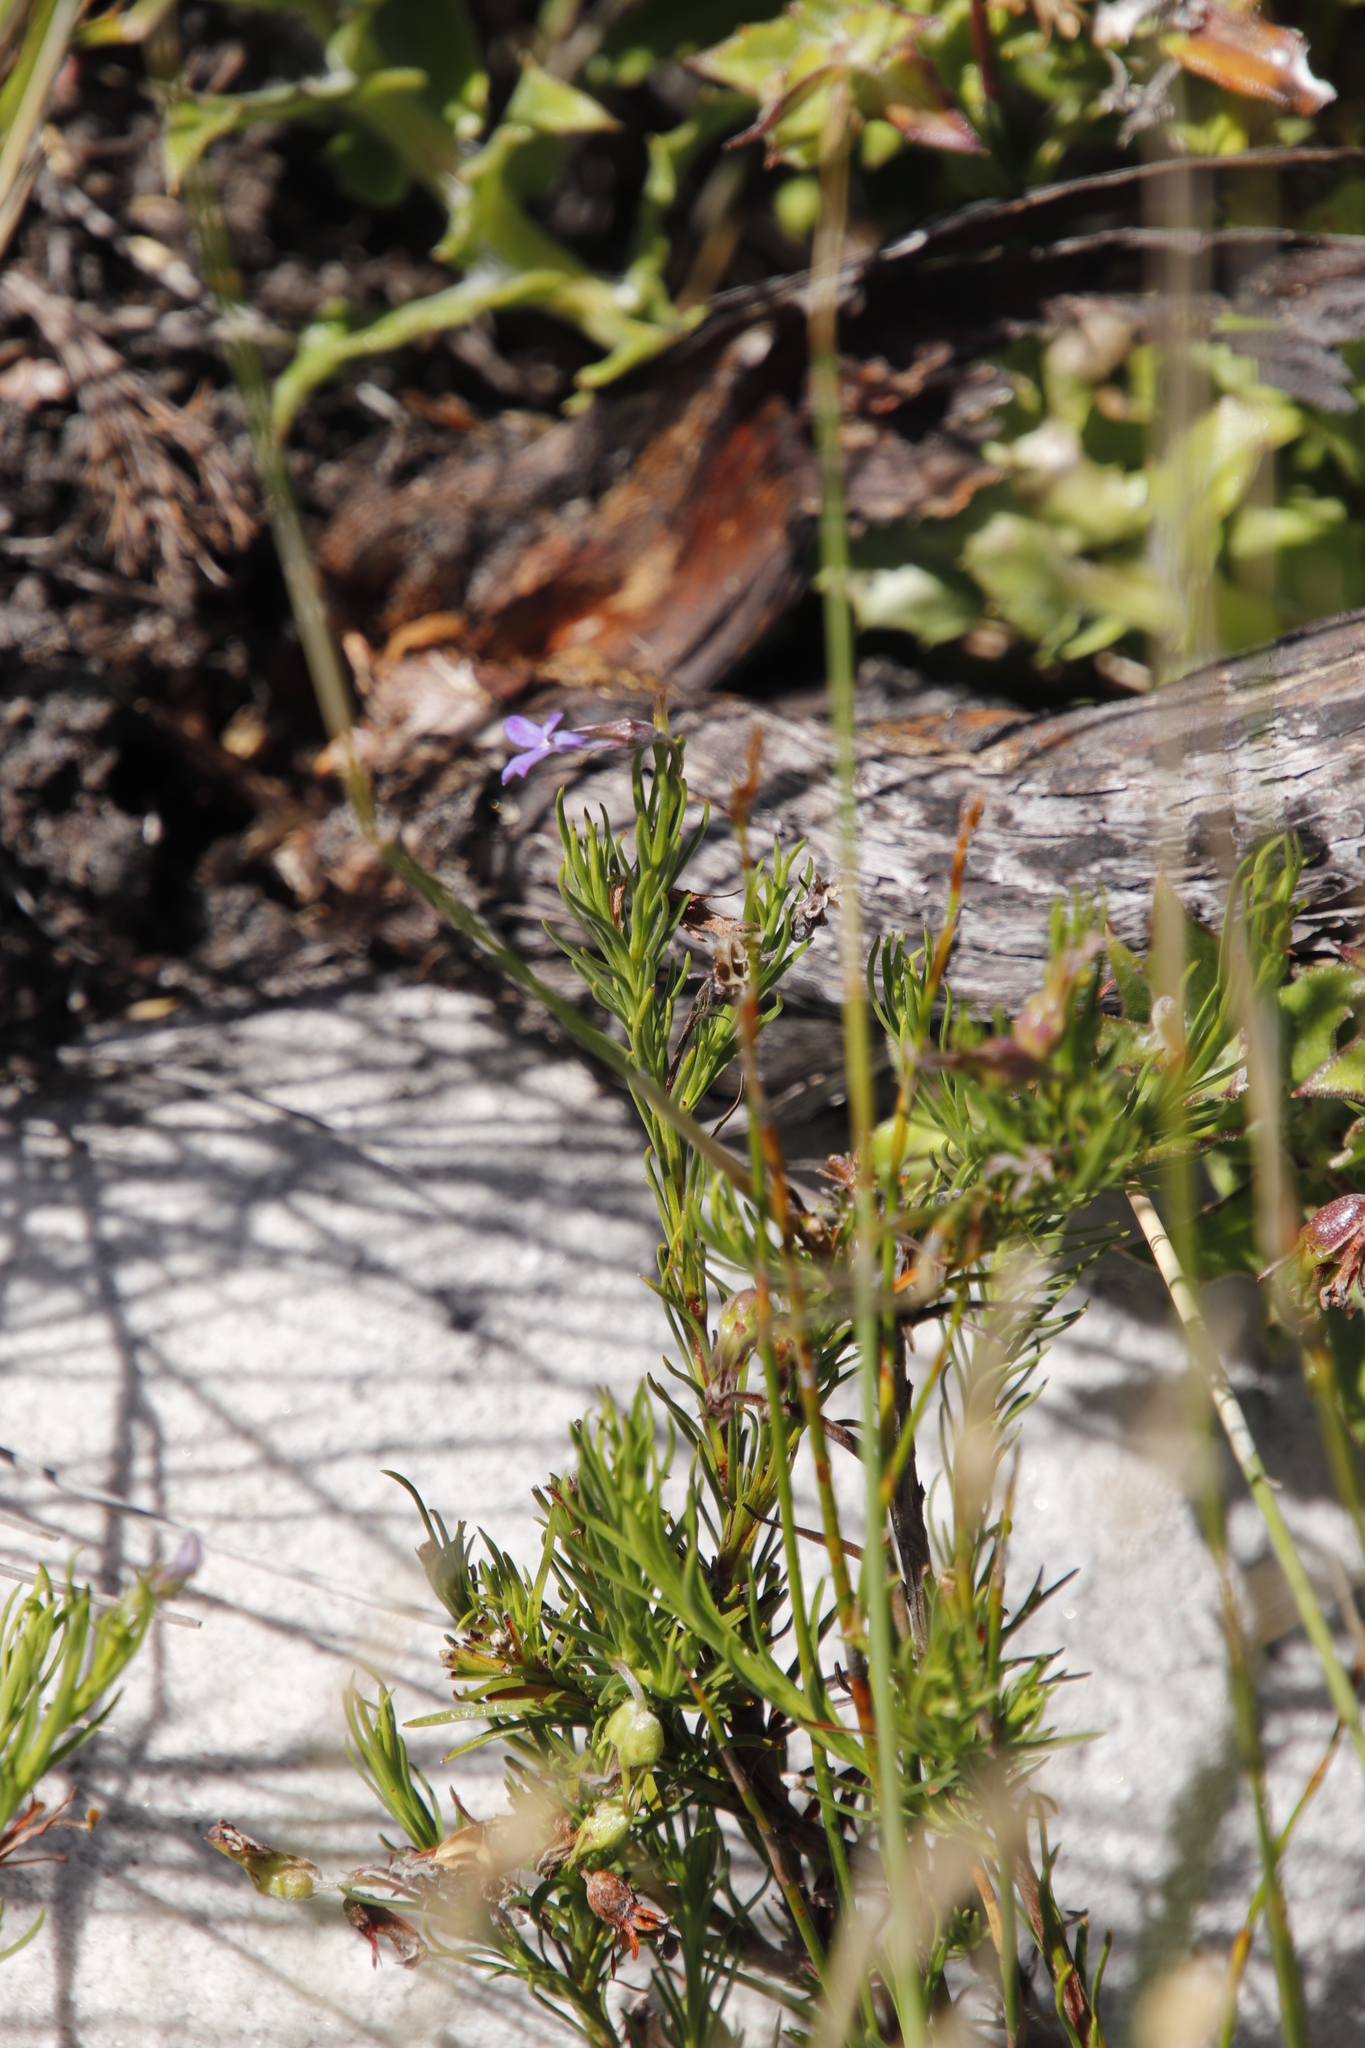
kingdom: Plantae
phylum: Tracheophyta
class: Magnoliopsida
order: Asterales
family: Campanulaceae
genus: Lobelia
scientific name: Lobelia pinifolia
